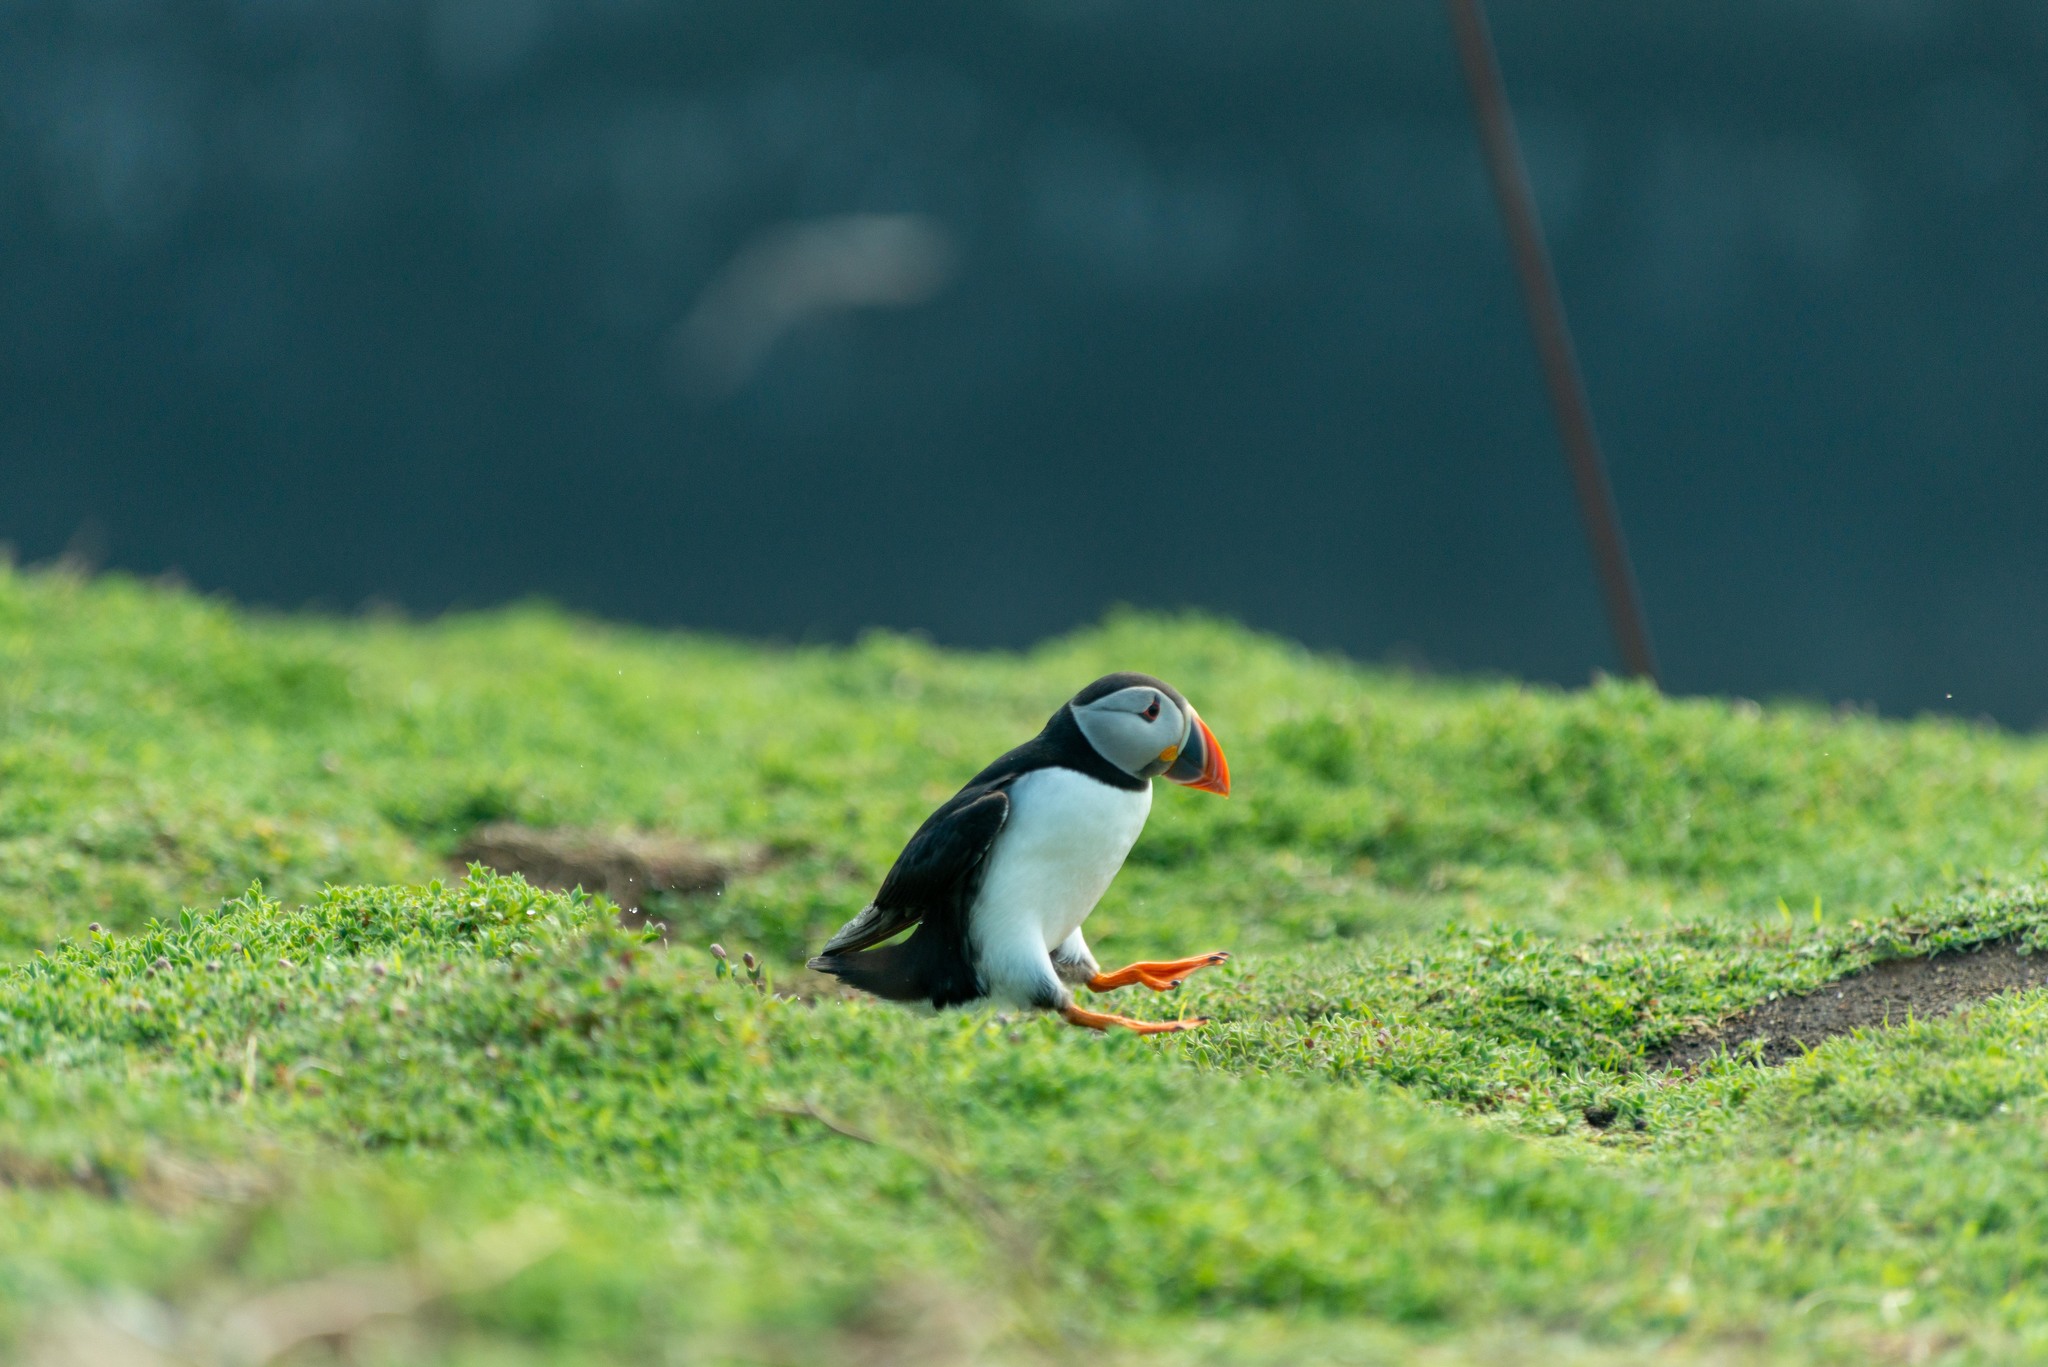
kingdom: Animalia
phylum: Chordata
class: Aves
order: Charadriiformes
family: Alcidae
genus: Fratercula
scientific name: Fratercula arctica
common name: Atlantic puffin
